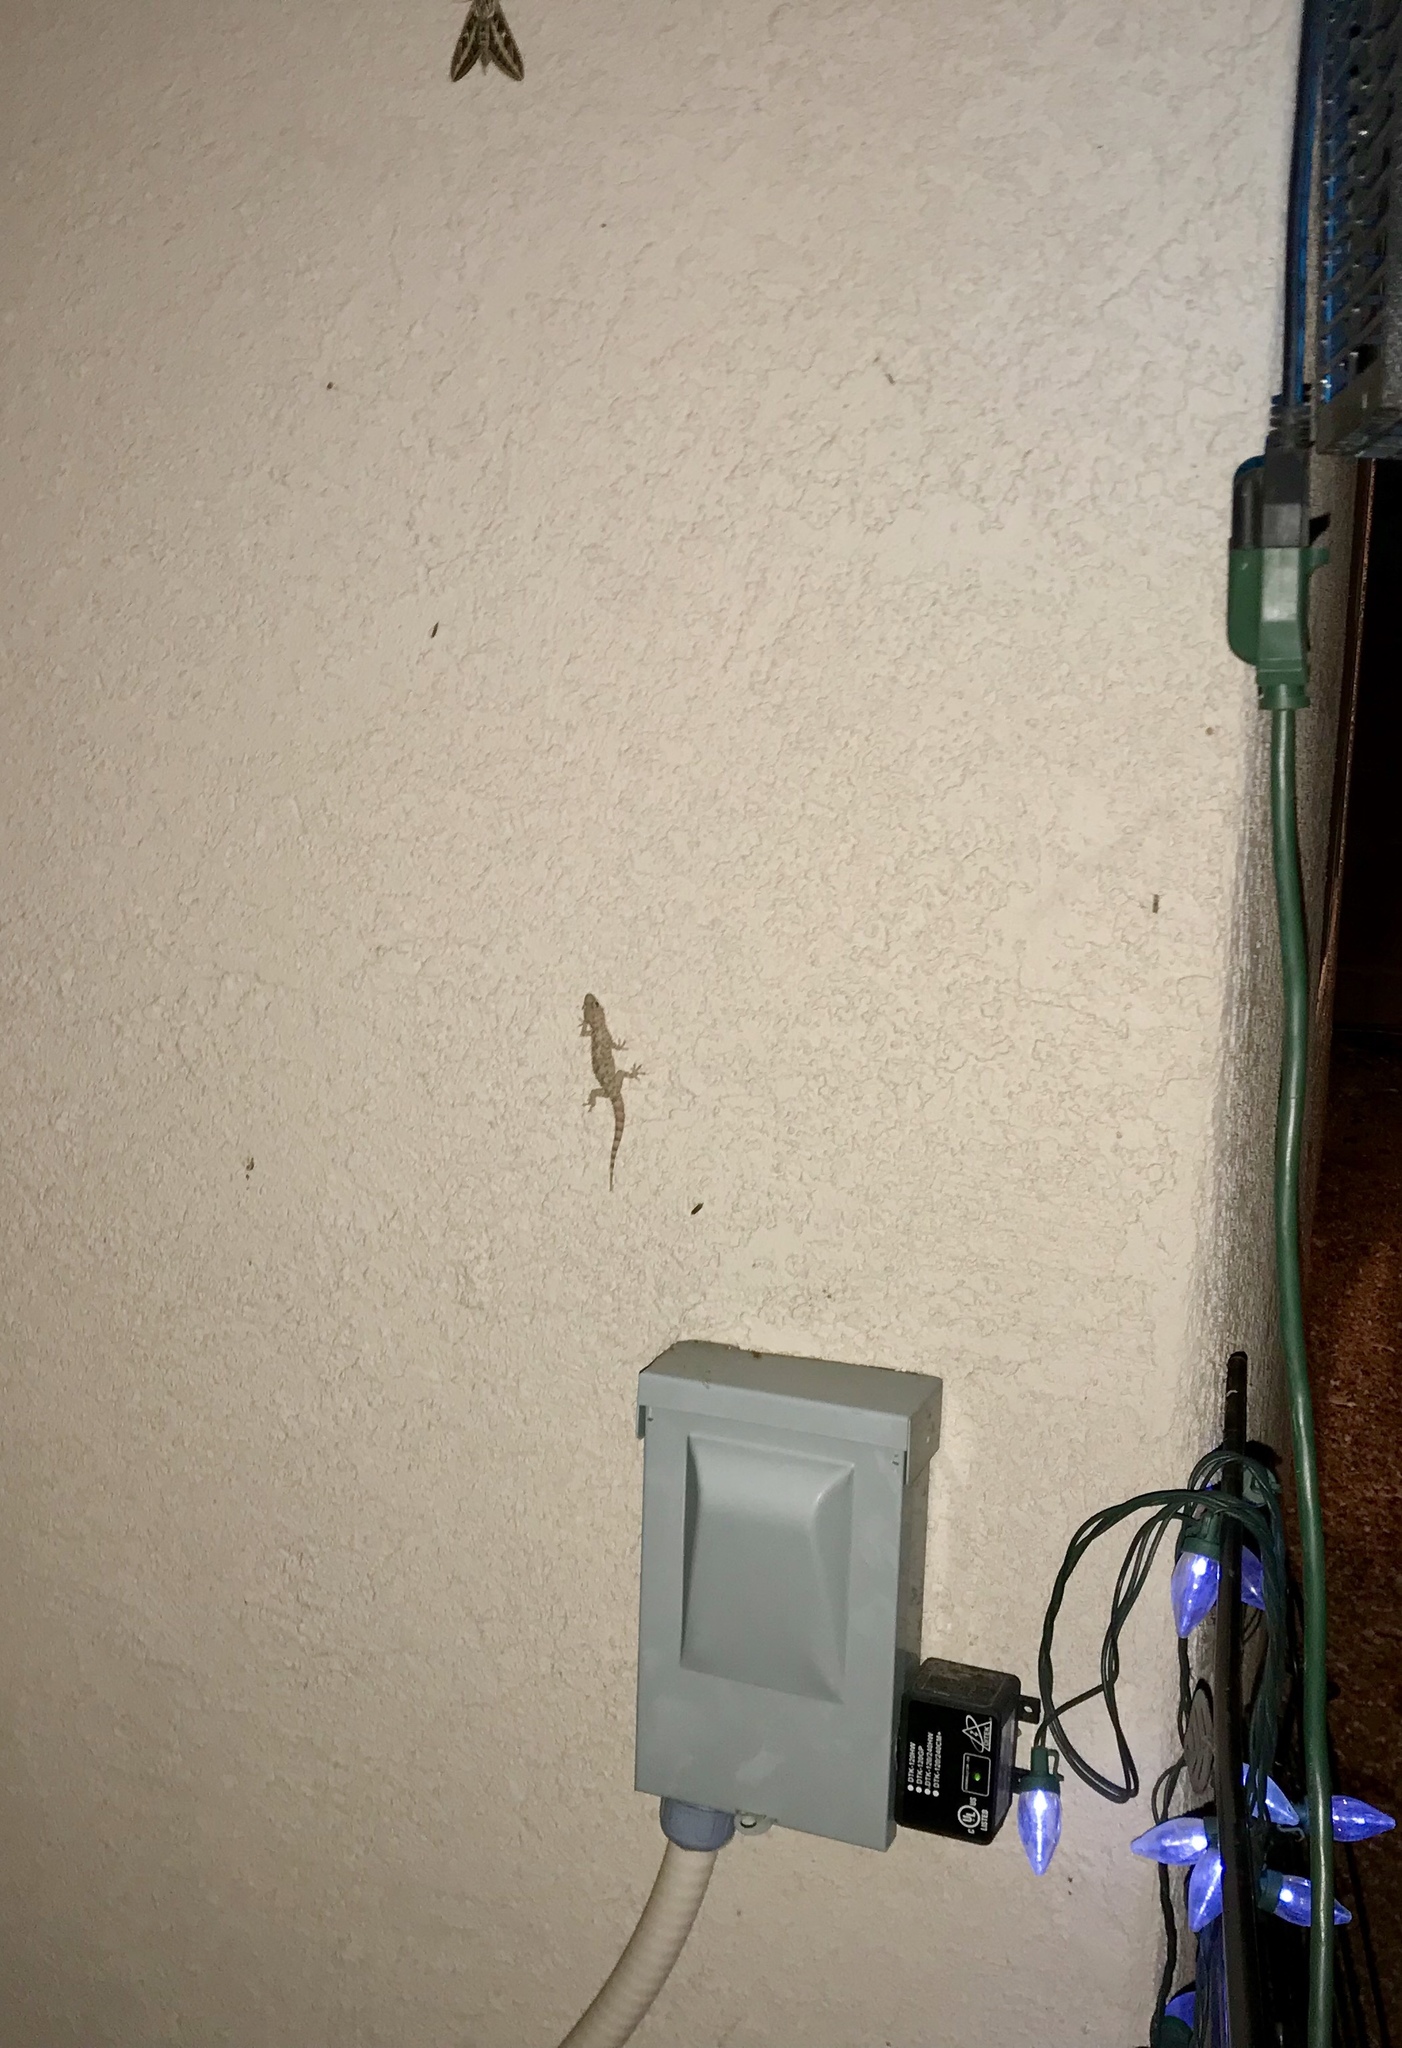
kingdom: Animalia
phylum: Chordata
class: Squamata
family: Gekkonidae
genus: Hemidactylus
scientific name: Hemidactylus turcicus
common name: Turkish gecko
